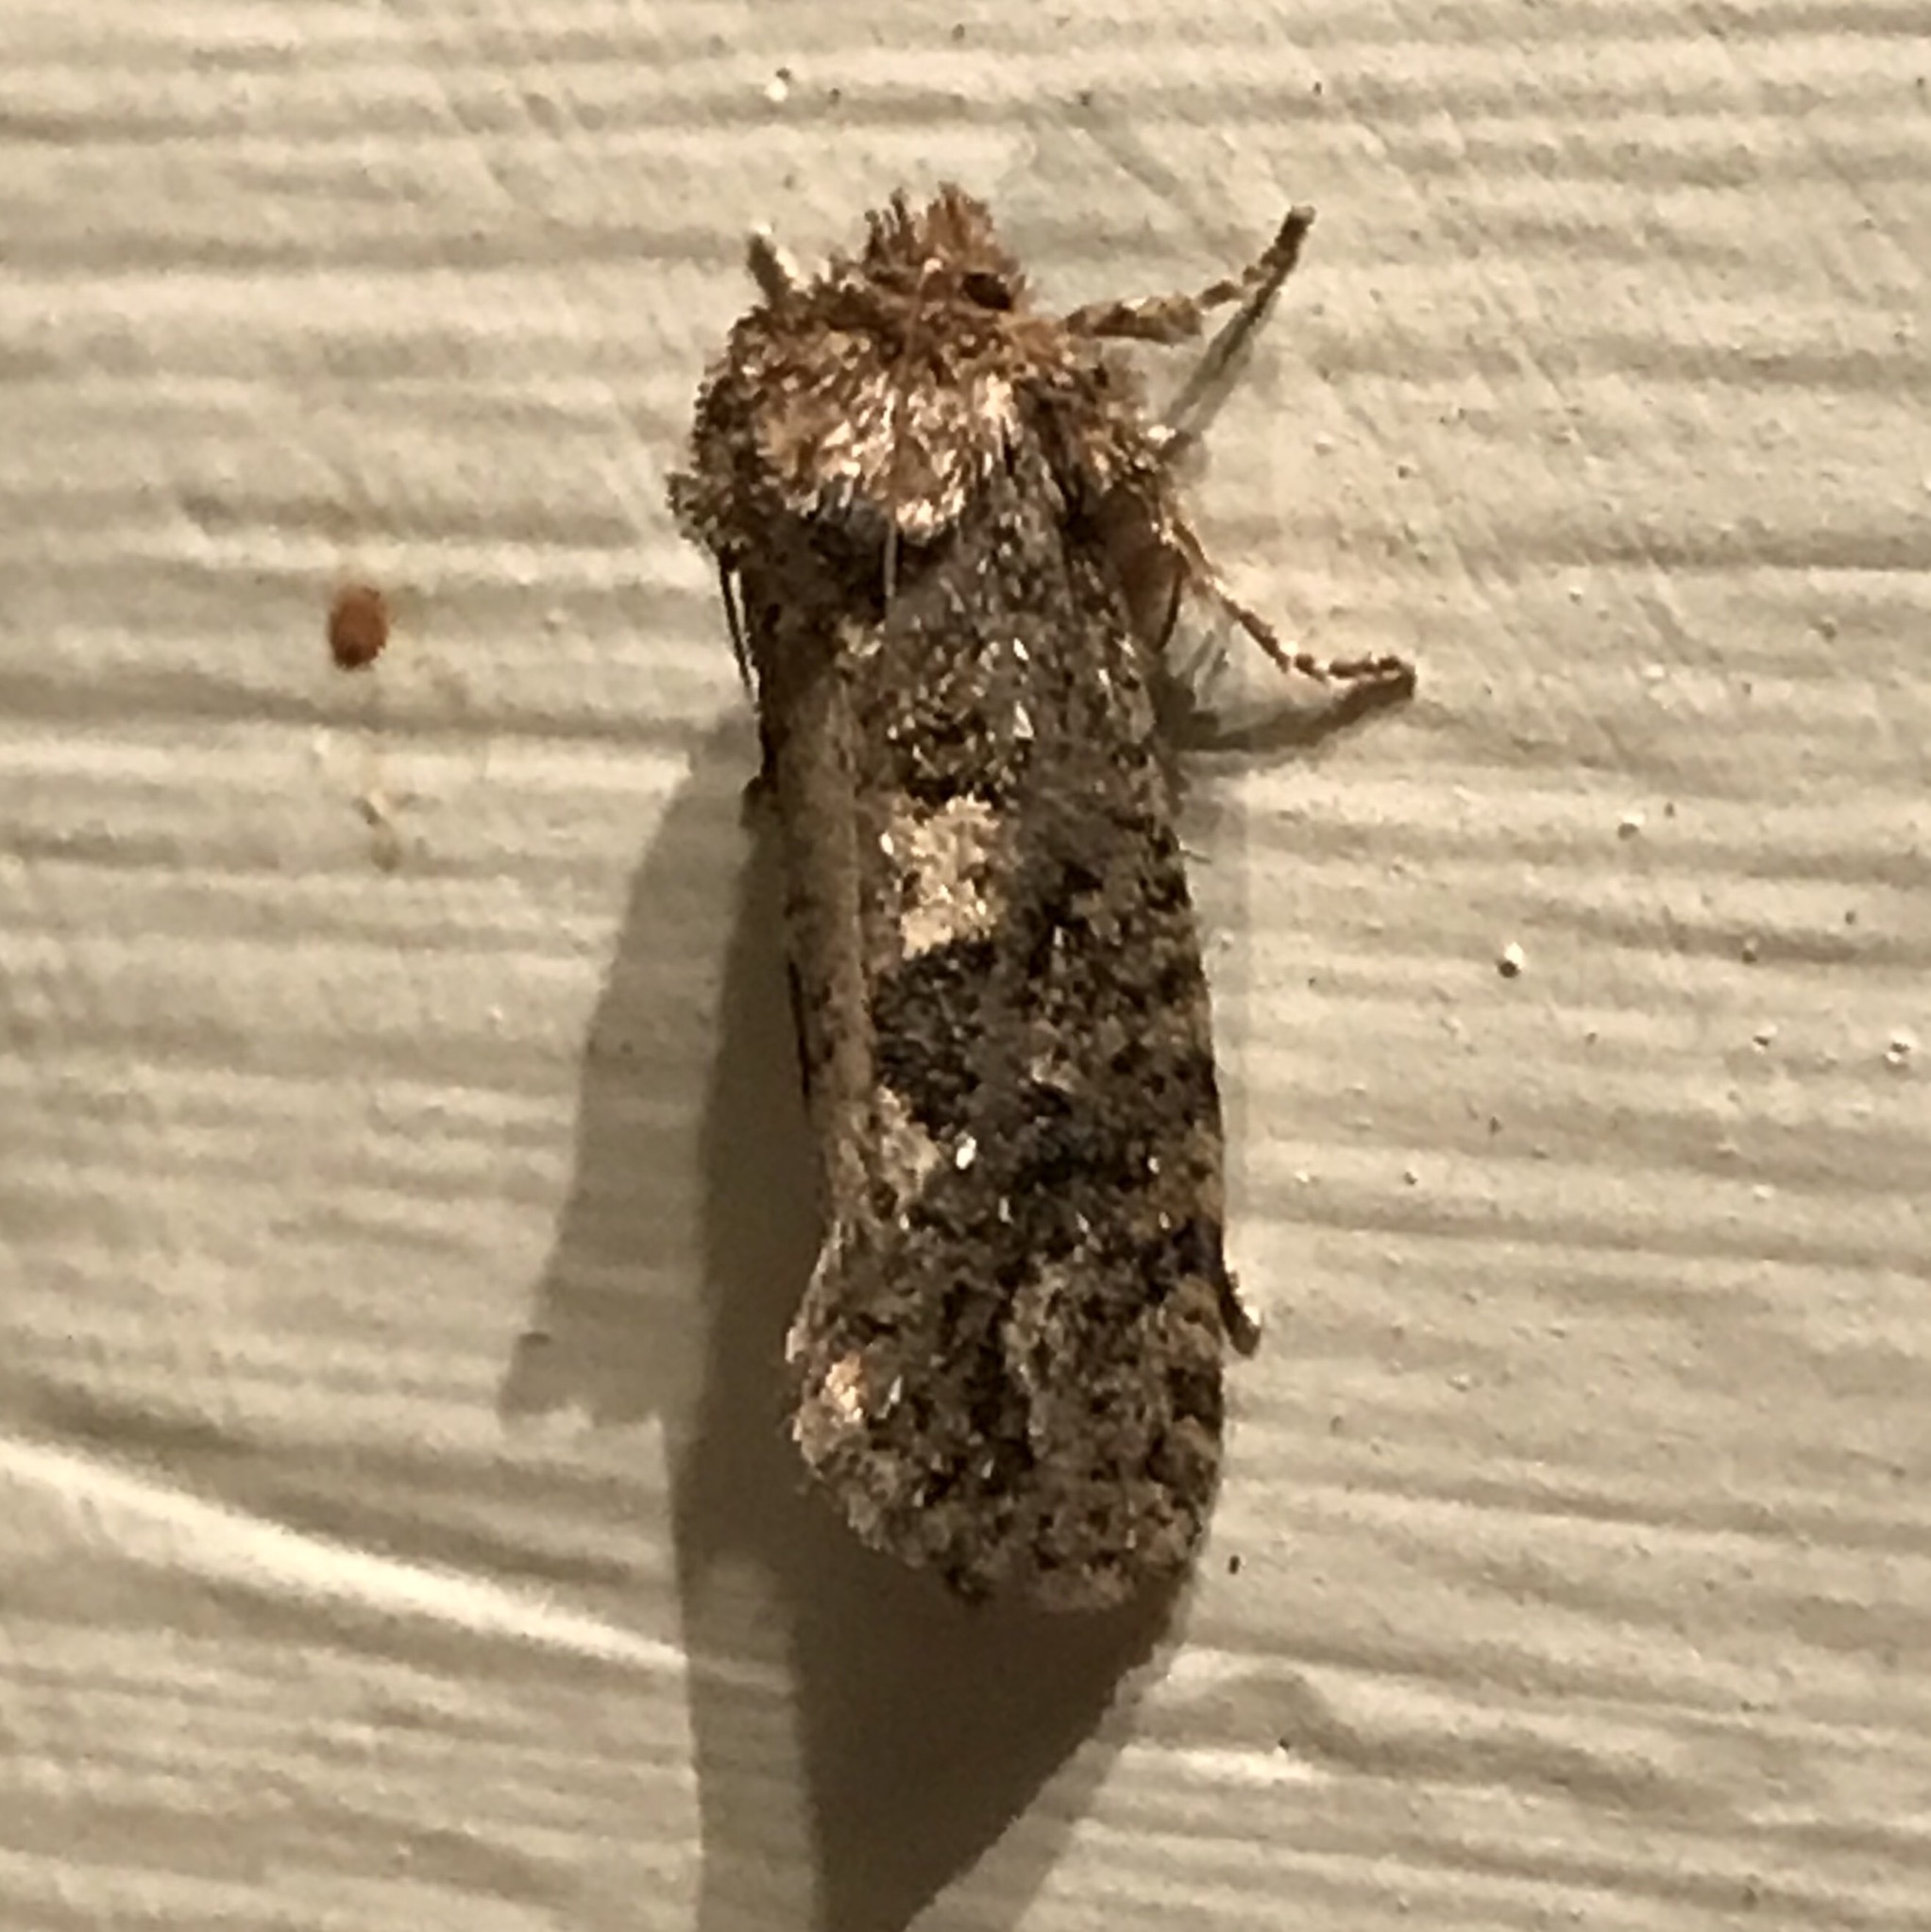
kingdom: Animalia
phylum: Arthropoda
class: Insecta
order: Lepidoptera
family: Tineidae
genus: Acrolophus
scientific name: Acrolophus arcanella
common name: Arcane grass tubeworm moth
